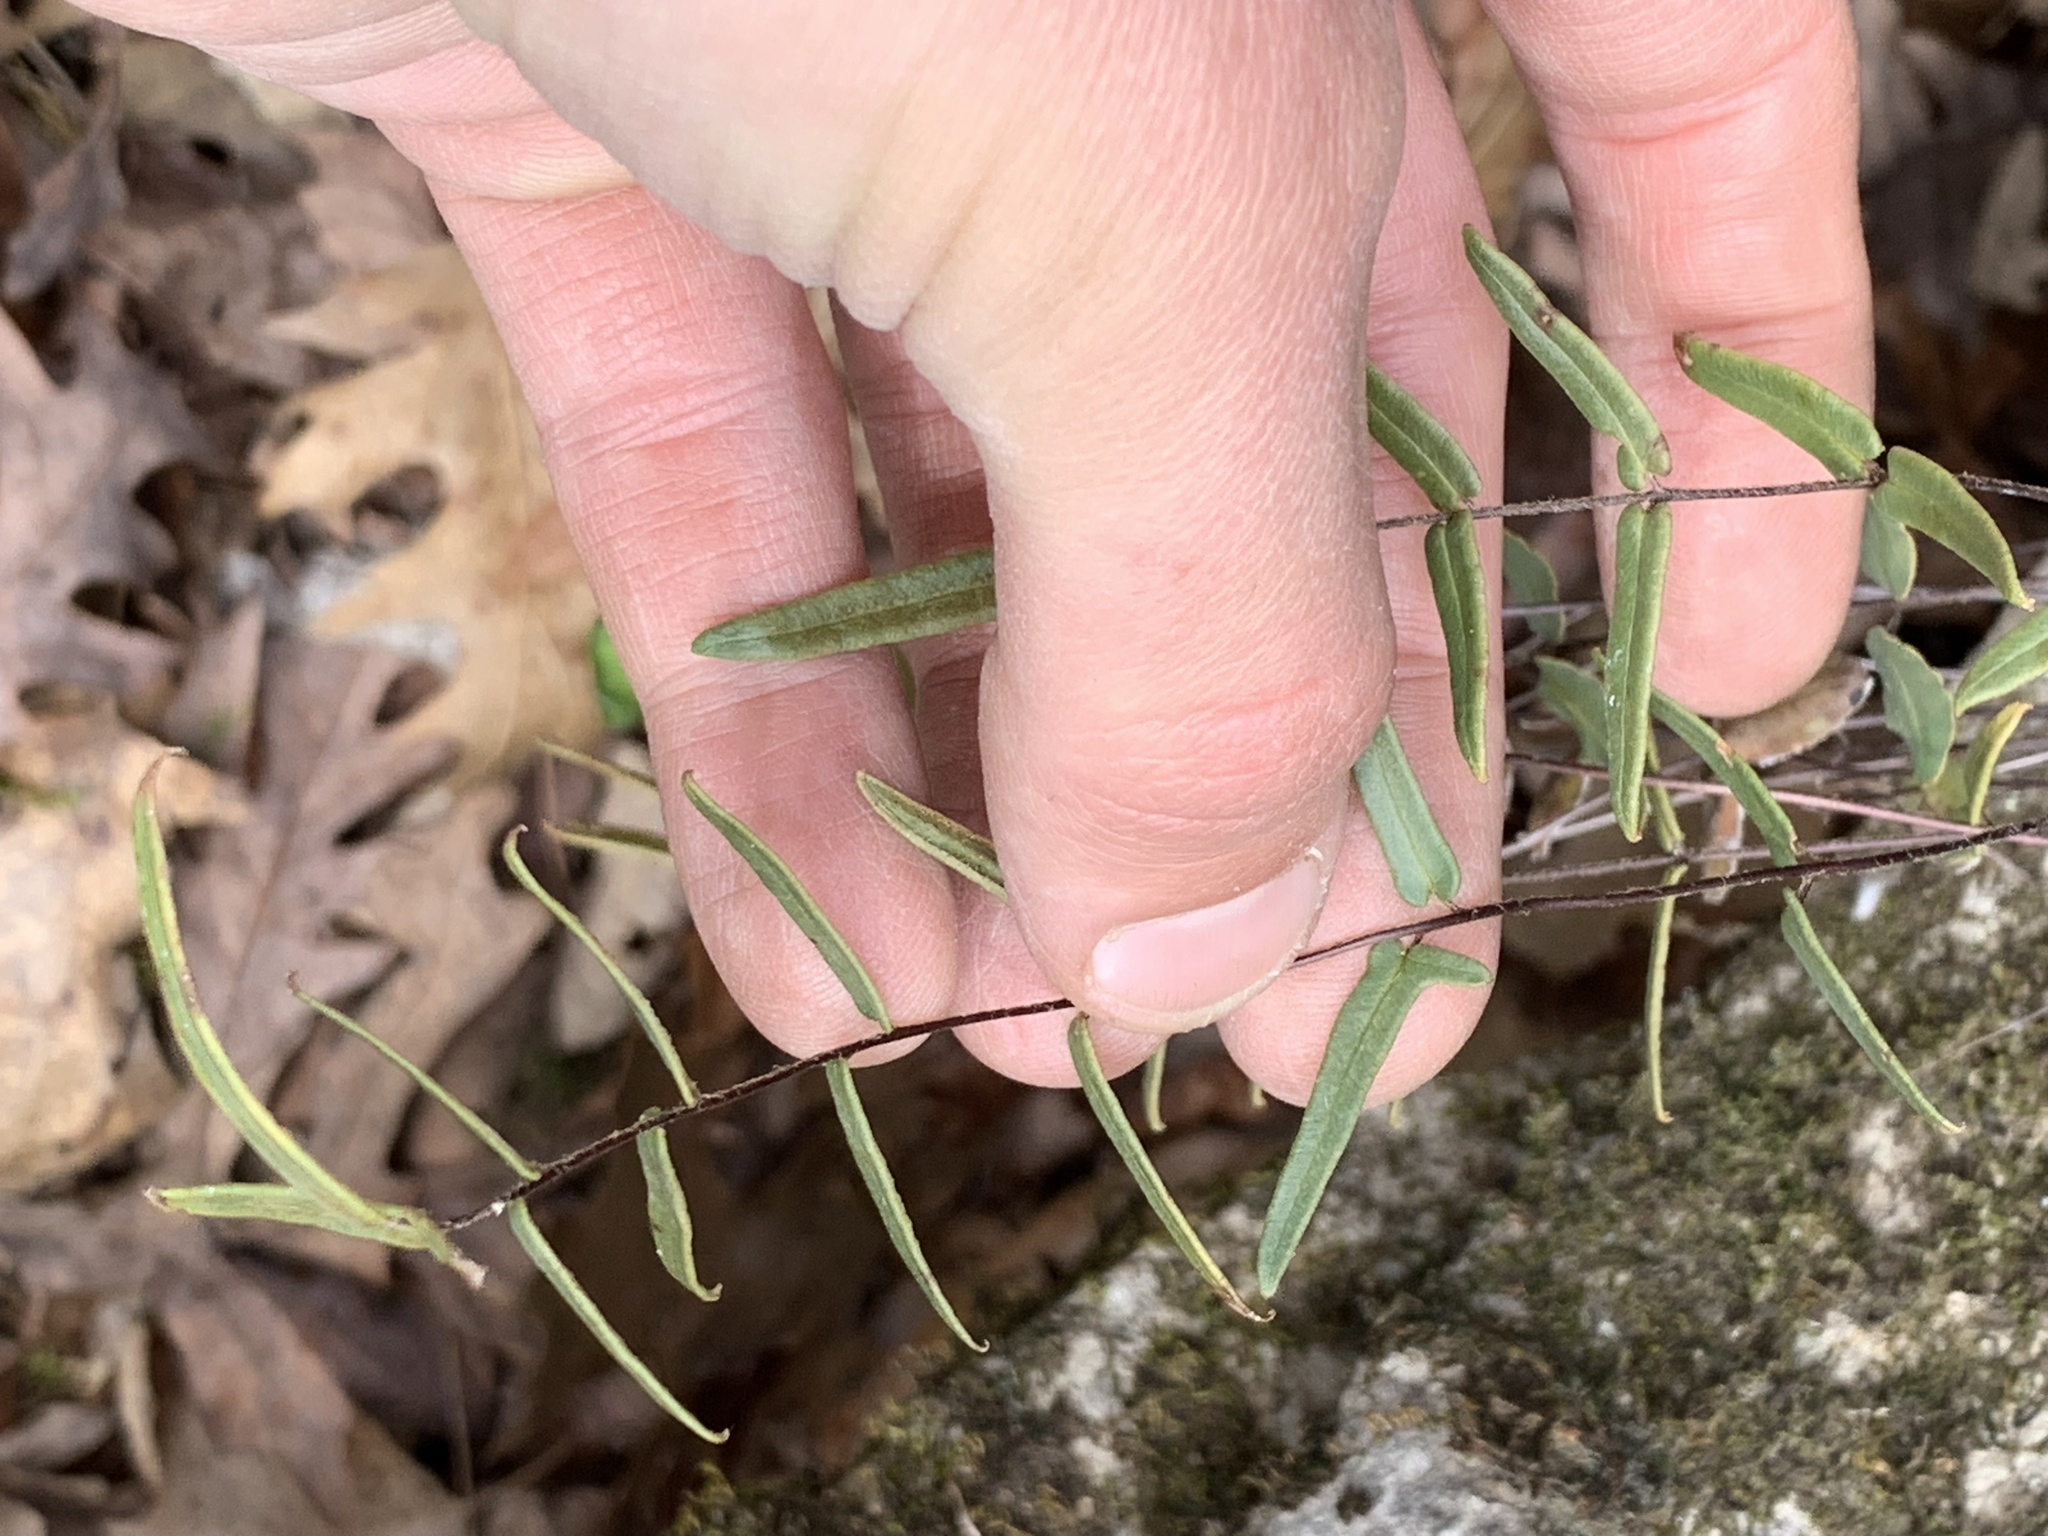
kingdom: Plantae
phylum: Tracheophyta
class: Polypodiopsida
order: Polypodiales
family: Pteridaceae
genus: Pellaea
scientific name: Pellaea atropurpurea
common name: Hairy cliffbrake
